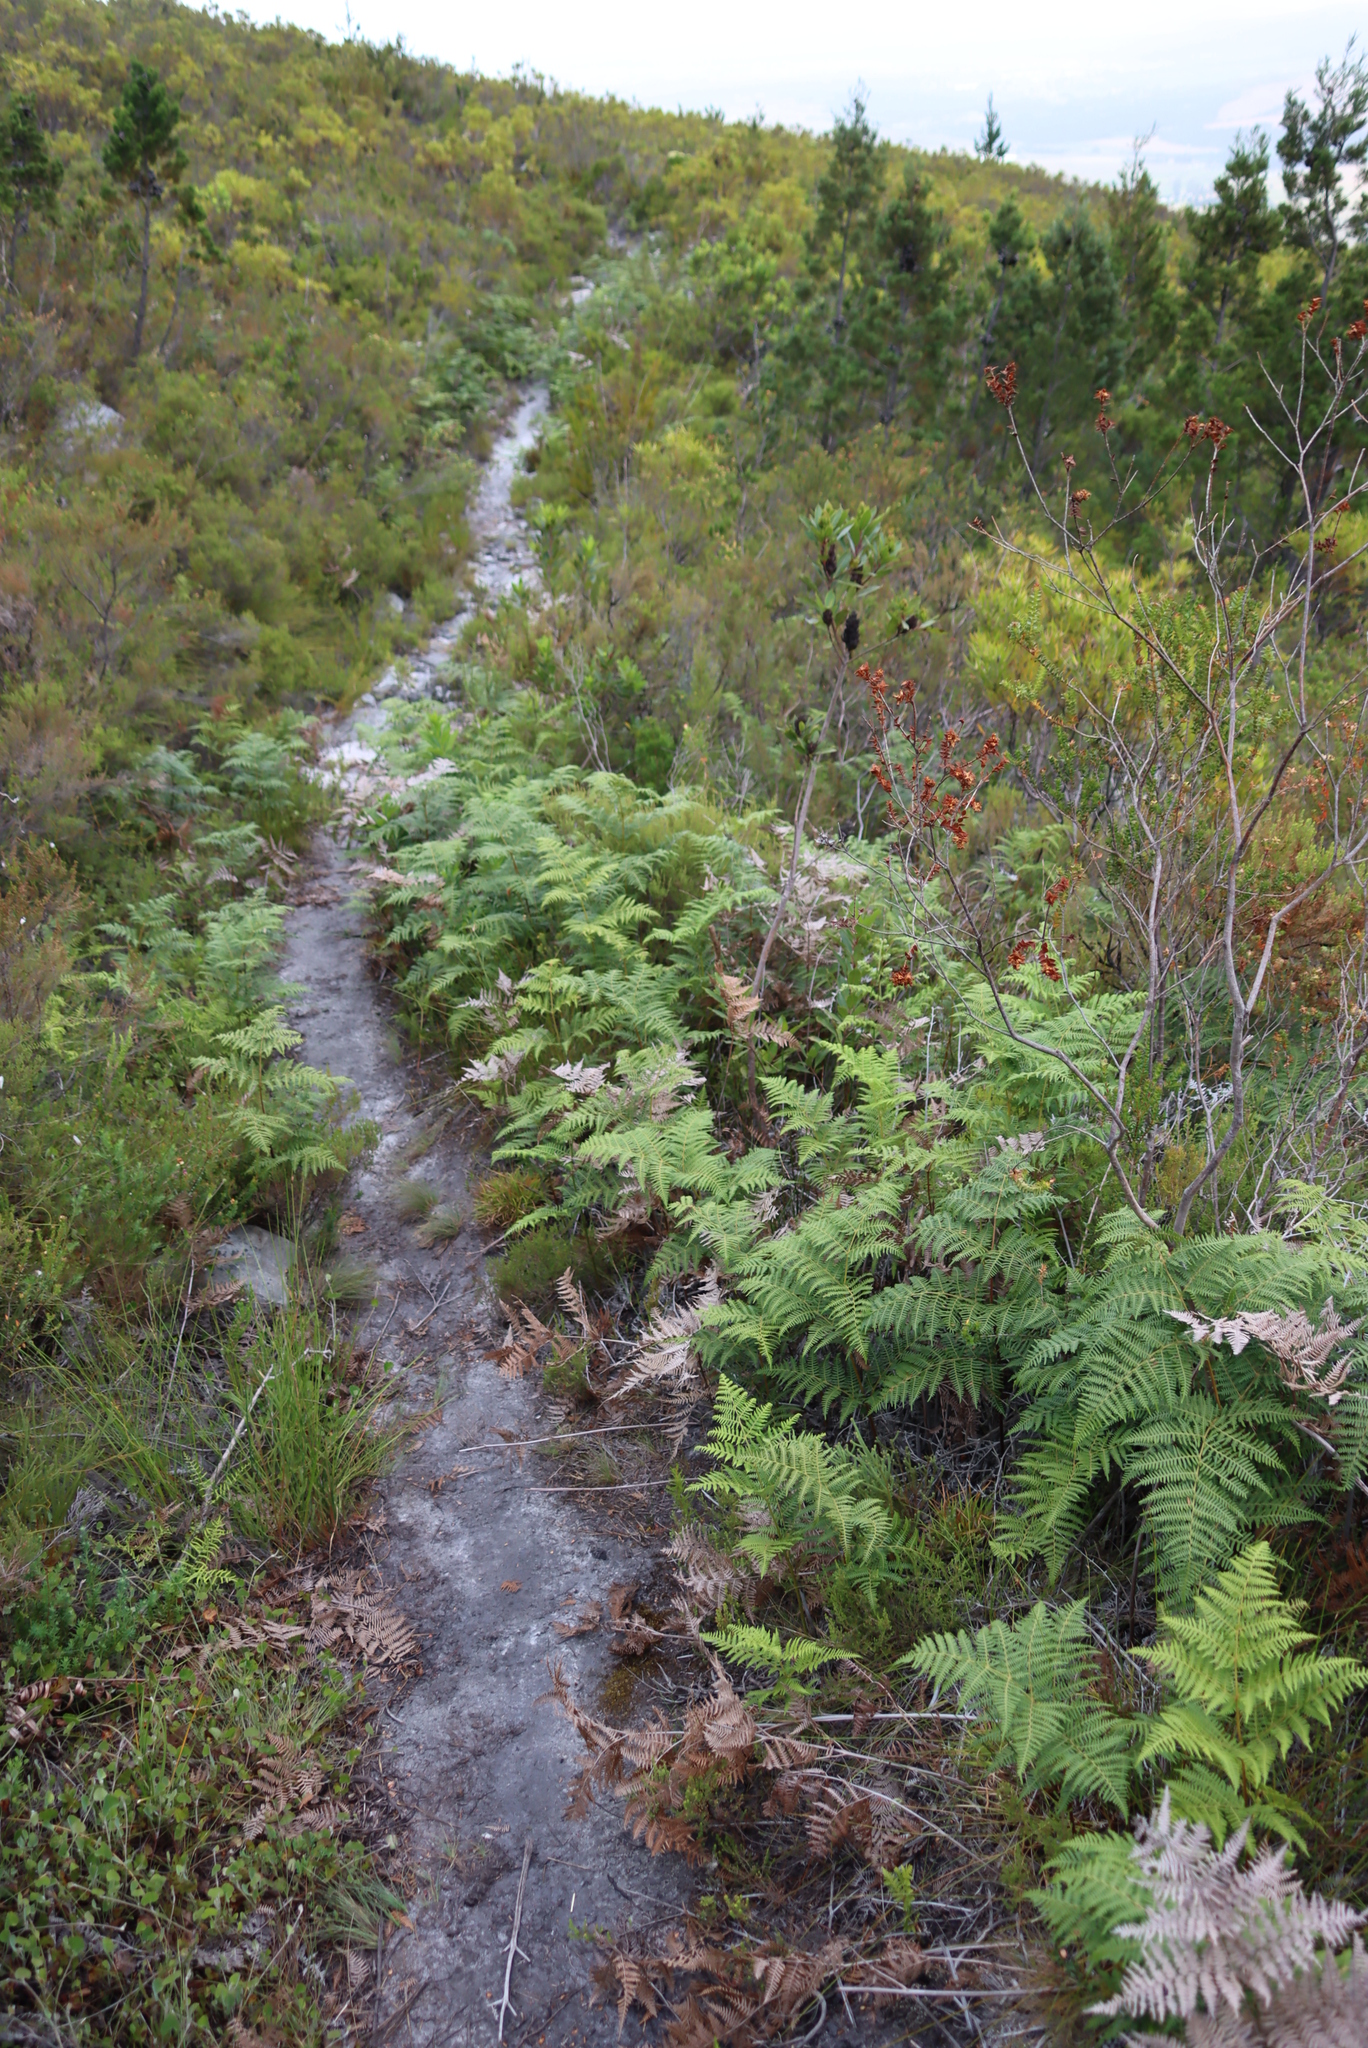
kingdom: Plantae
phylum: Tracheophyta
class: Polypodiopsida
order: Polypodiales
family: Dennstaedtiaceae
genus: Pteridium
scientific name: Pteridium aquilinum
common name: Bracken
